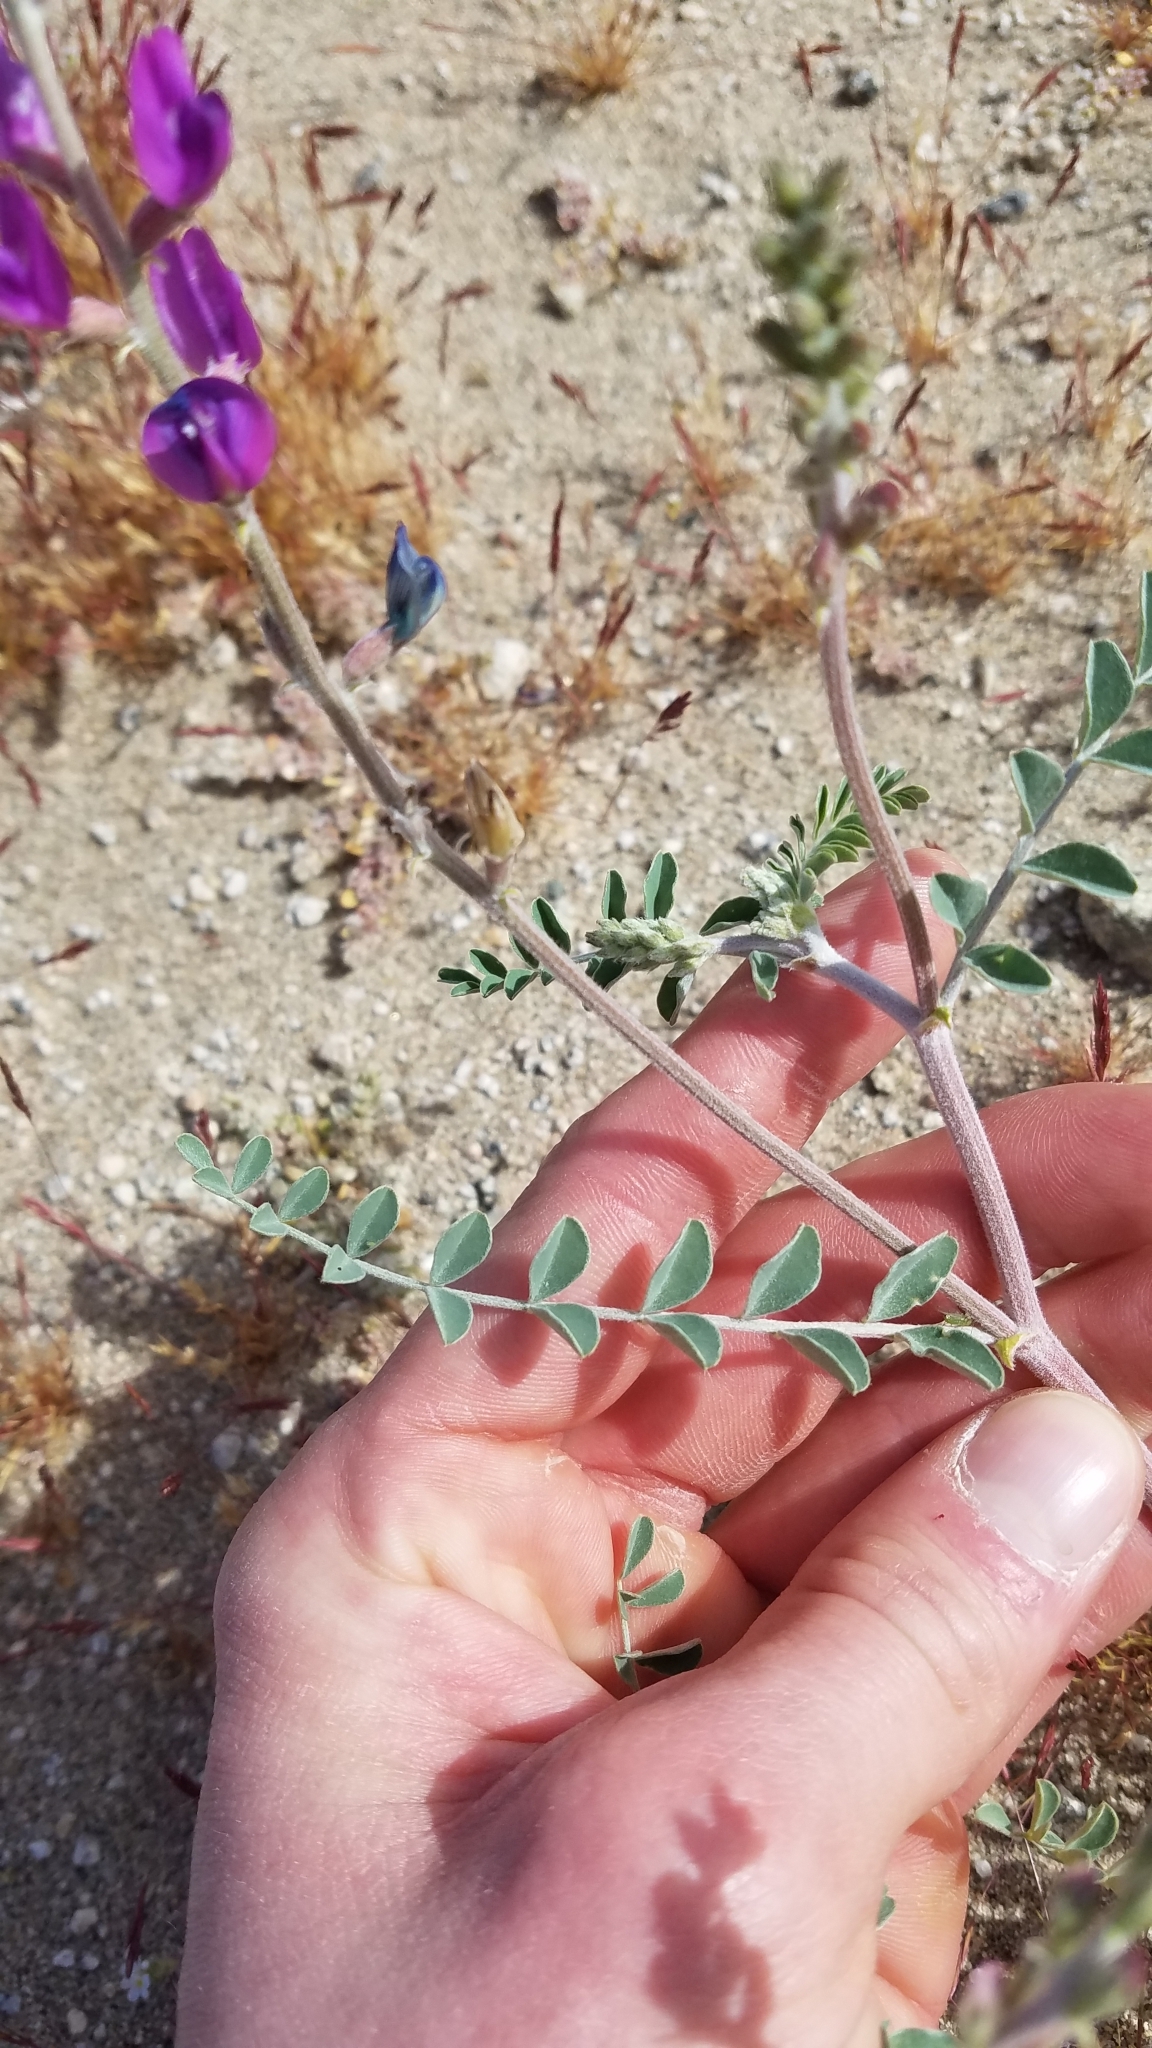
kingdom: Plantae
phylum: Tracheophyta
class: Magnoliopsida
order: Fabales
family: Fabaceae
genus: Astragalus
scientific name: Astragalus lentiginosus
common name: Freckled milkvetch
